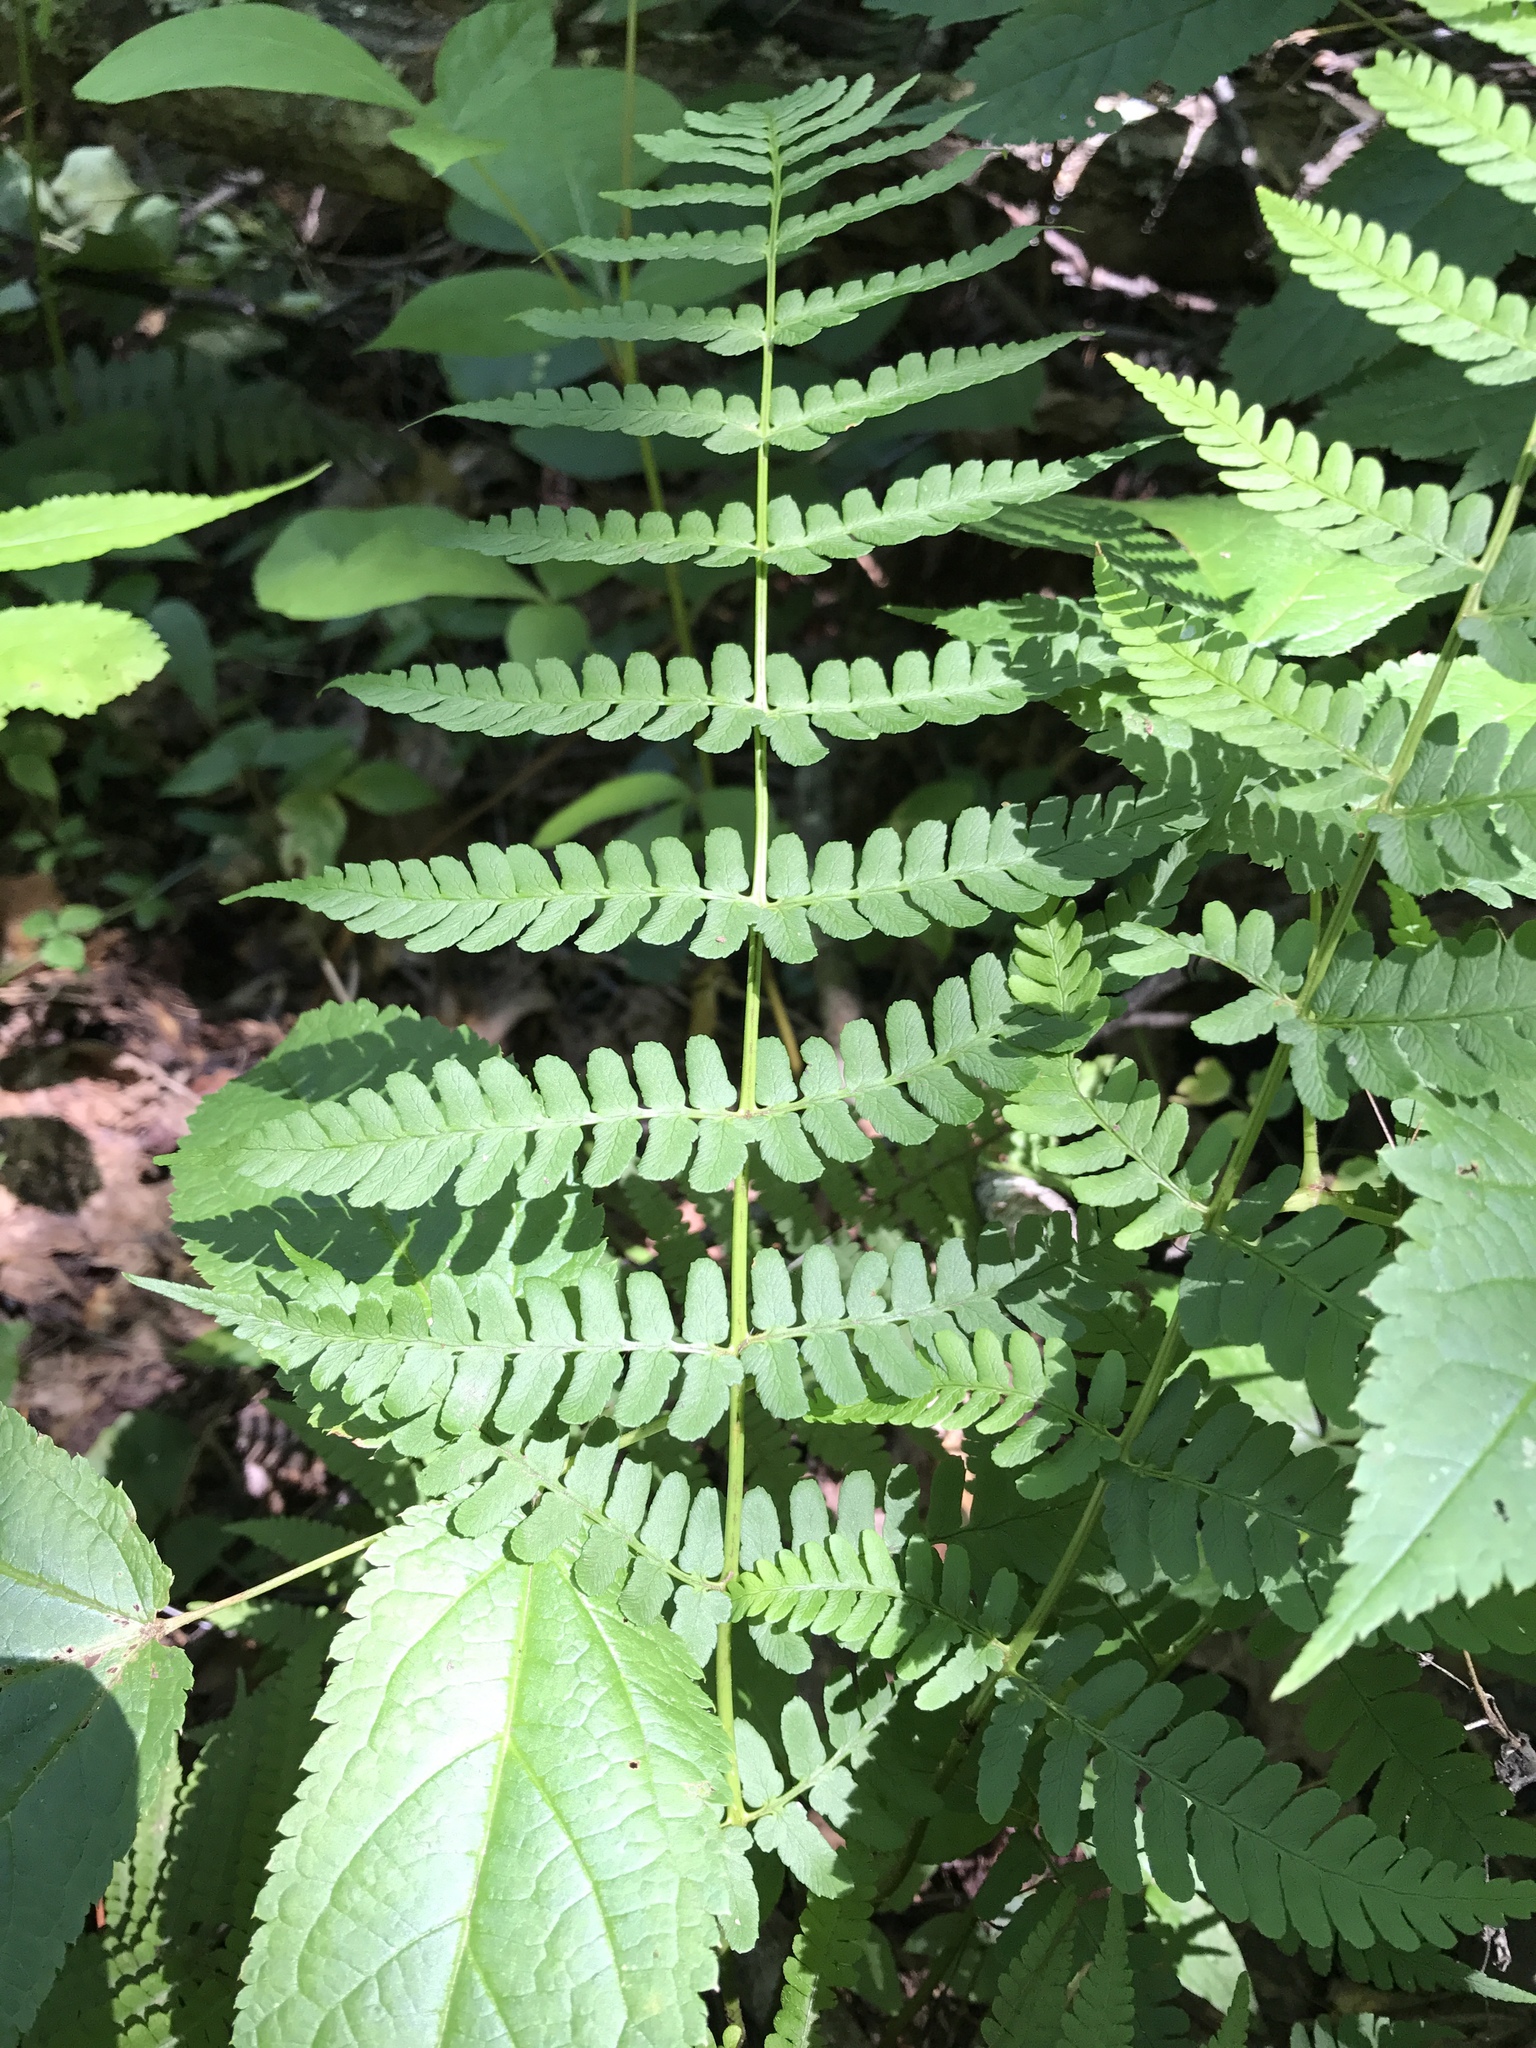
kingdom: Plantae
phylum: Tracheophyta
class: Polypodiopsida
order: Polypodiales
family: Dryopteridaceae
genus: Dryopteris
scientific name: Dryopteris marginalis
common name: Marginal wood fern
